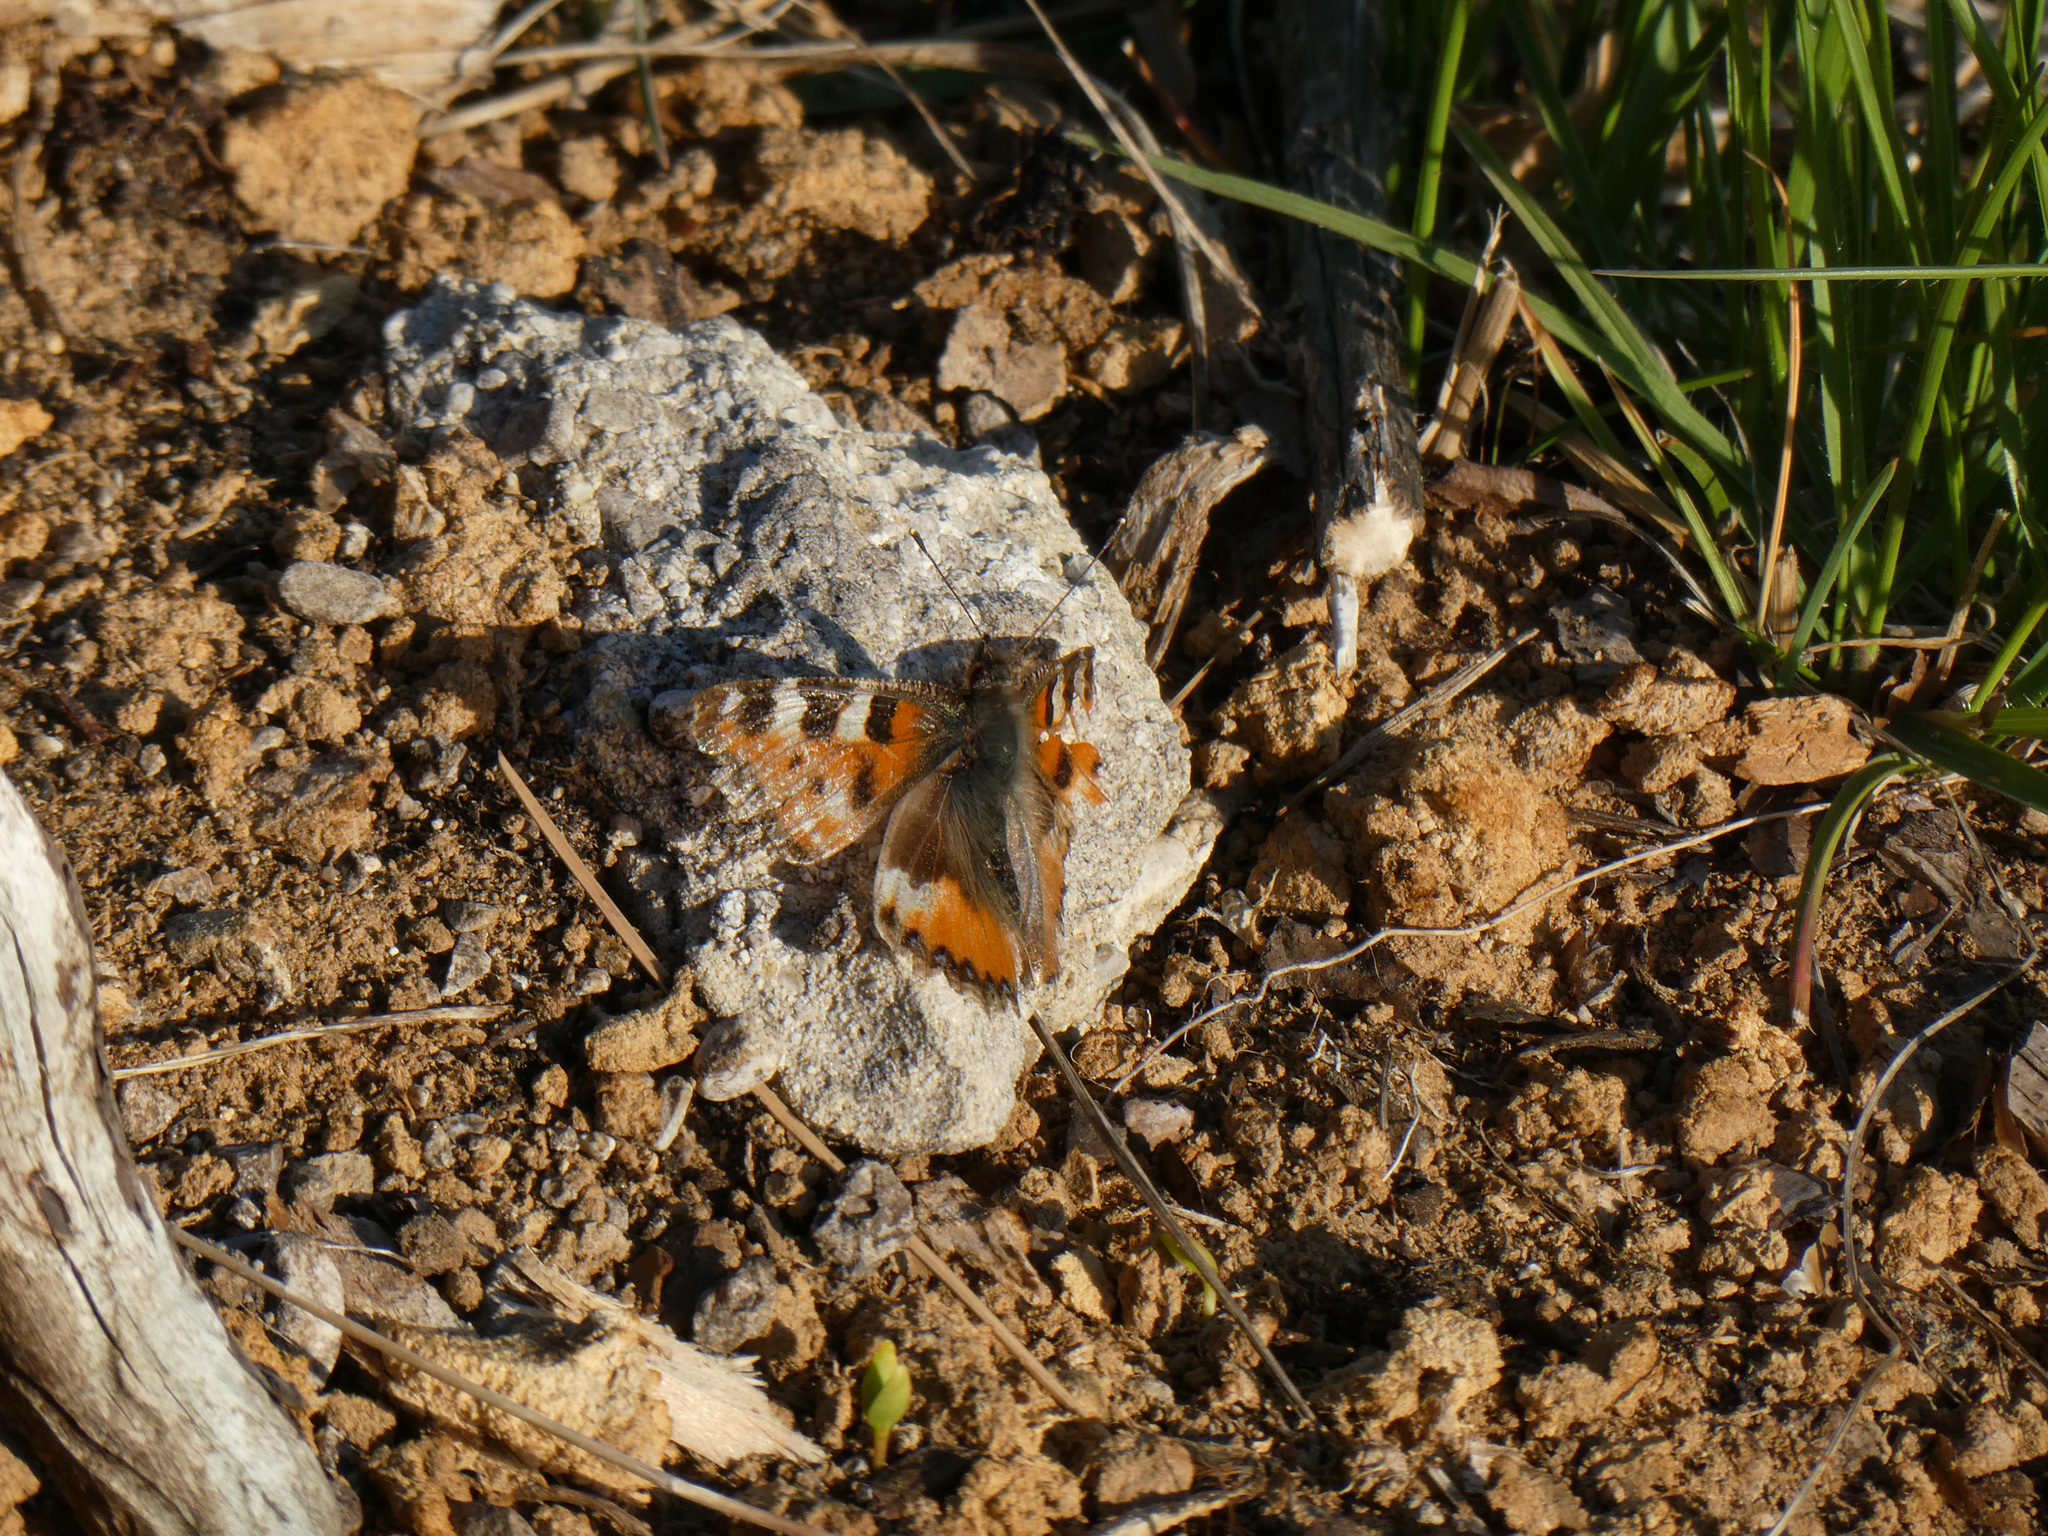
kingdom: Animalia
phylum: Arthropoda
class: Insecta
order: Lepidoptera
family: Nymphalidae
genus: Aglais
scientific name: Aglais urticae
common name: Small tortoiseshell
